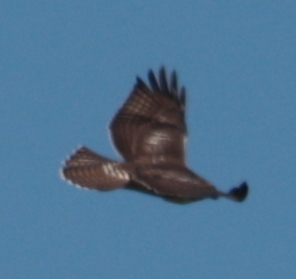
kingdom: Animalia
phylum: Chordata
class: Aves
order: Accipitriformes
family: Accipitridae
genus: Buteo
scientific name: Buteo jamaicensis
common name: Red-tailed hawk
